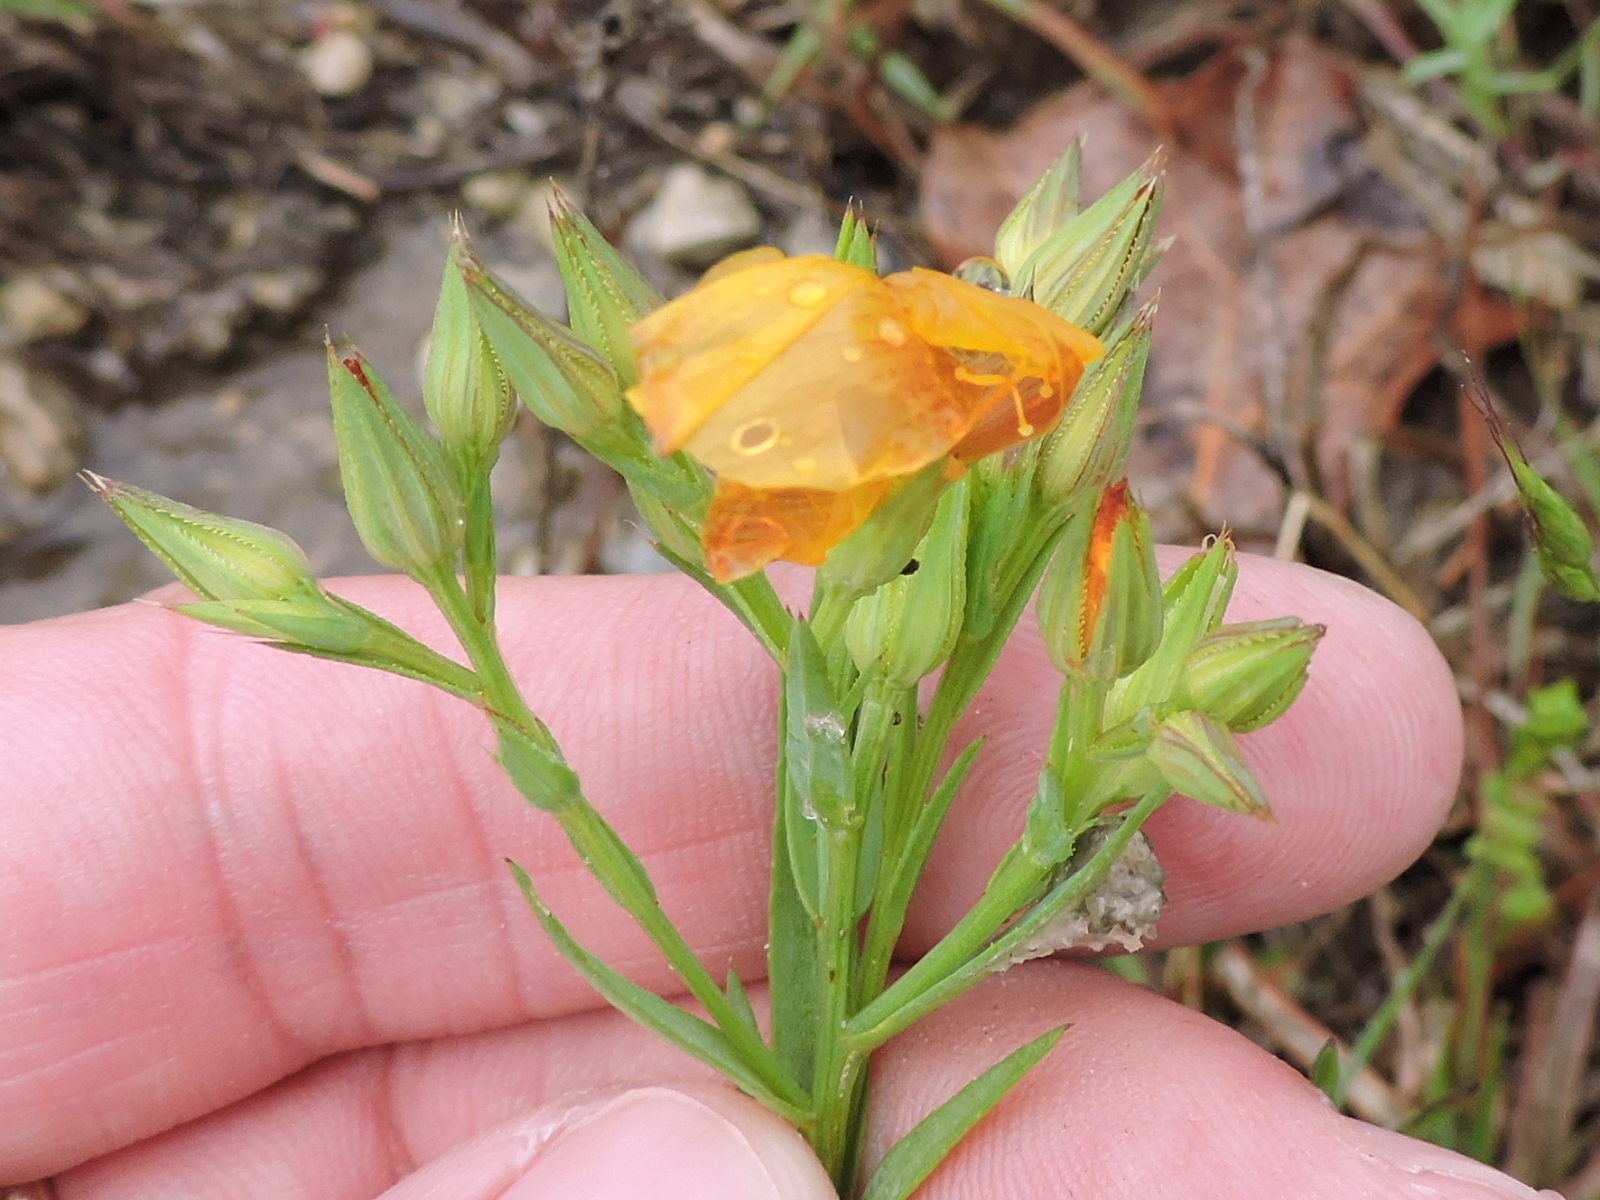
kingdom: Plantae
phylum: Tracheophyta
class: Magnoliopsida
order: Malpighiales
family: Linaceae
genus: Linum
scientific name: Linum rigidum
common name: Stiff-stem flax
